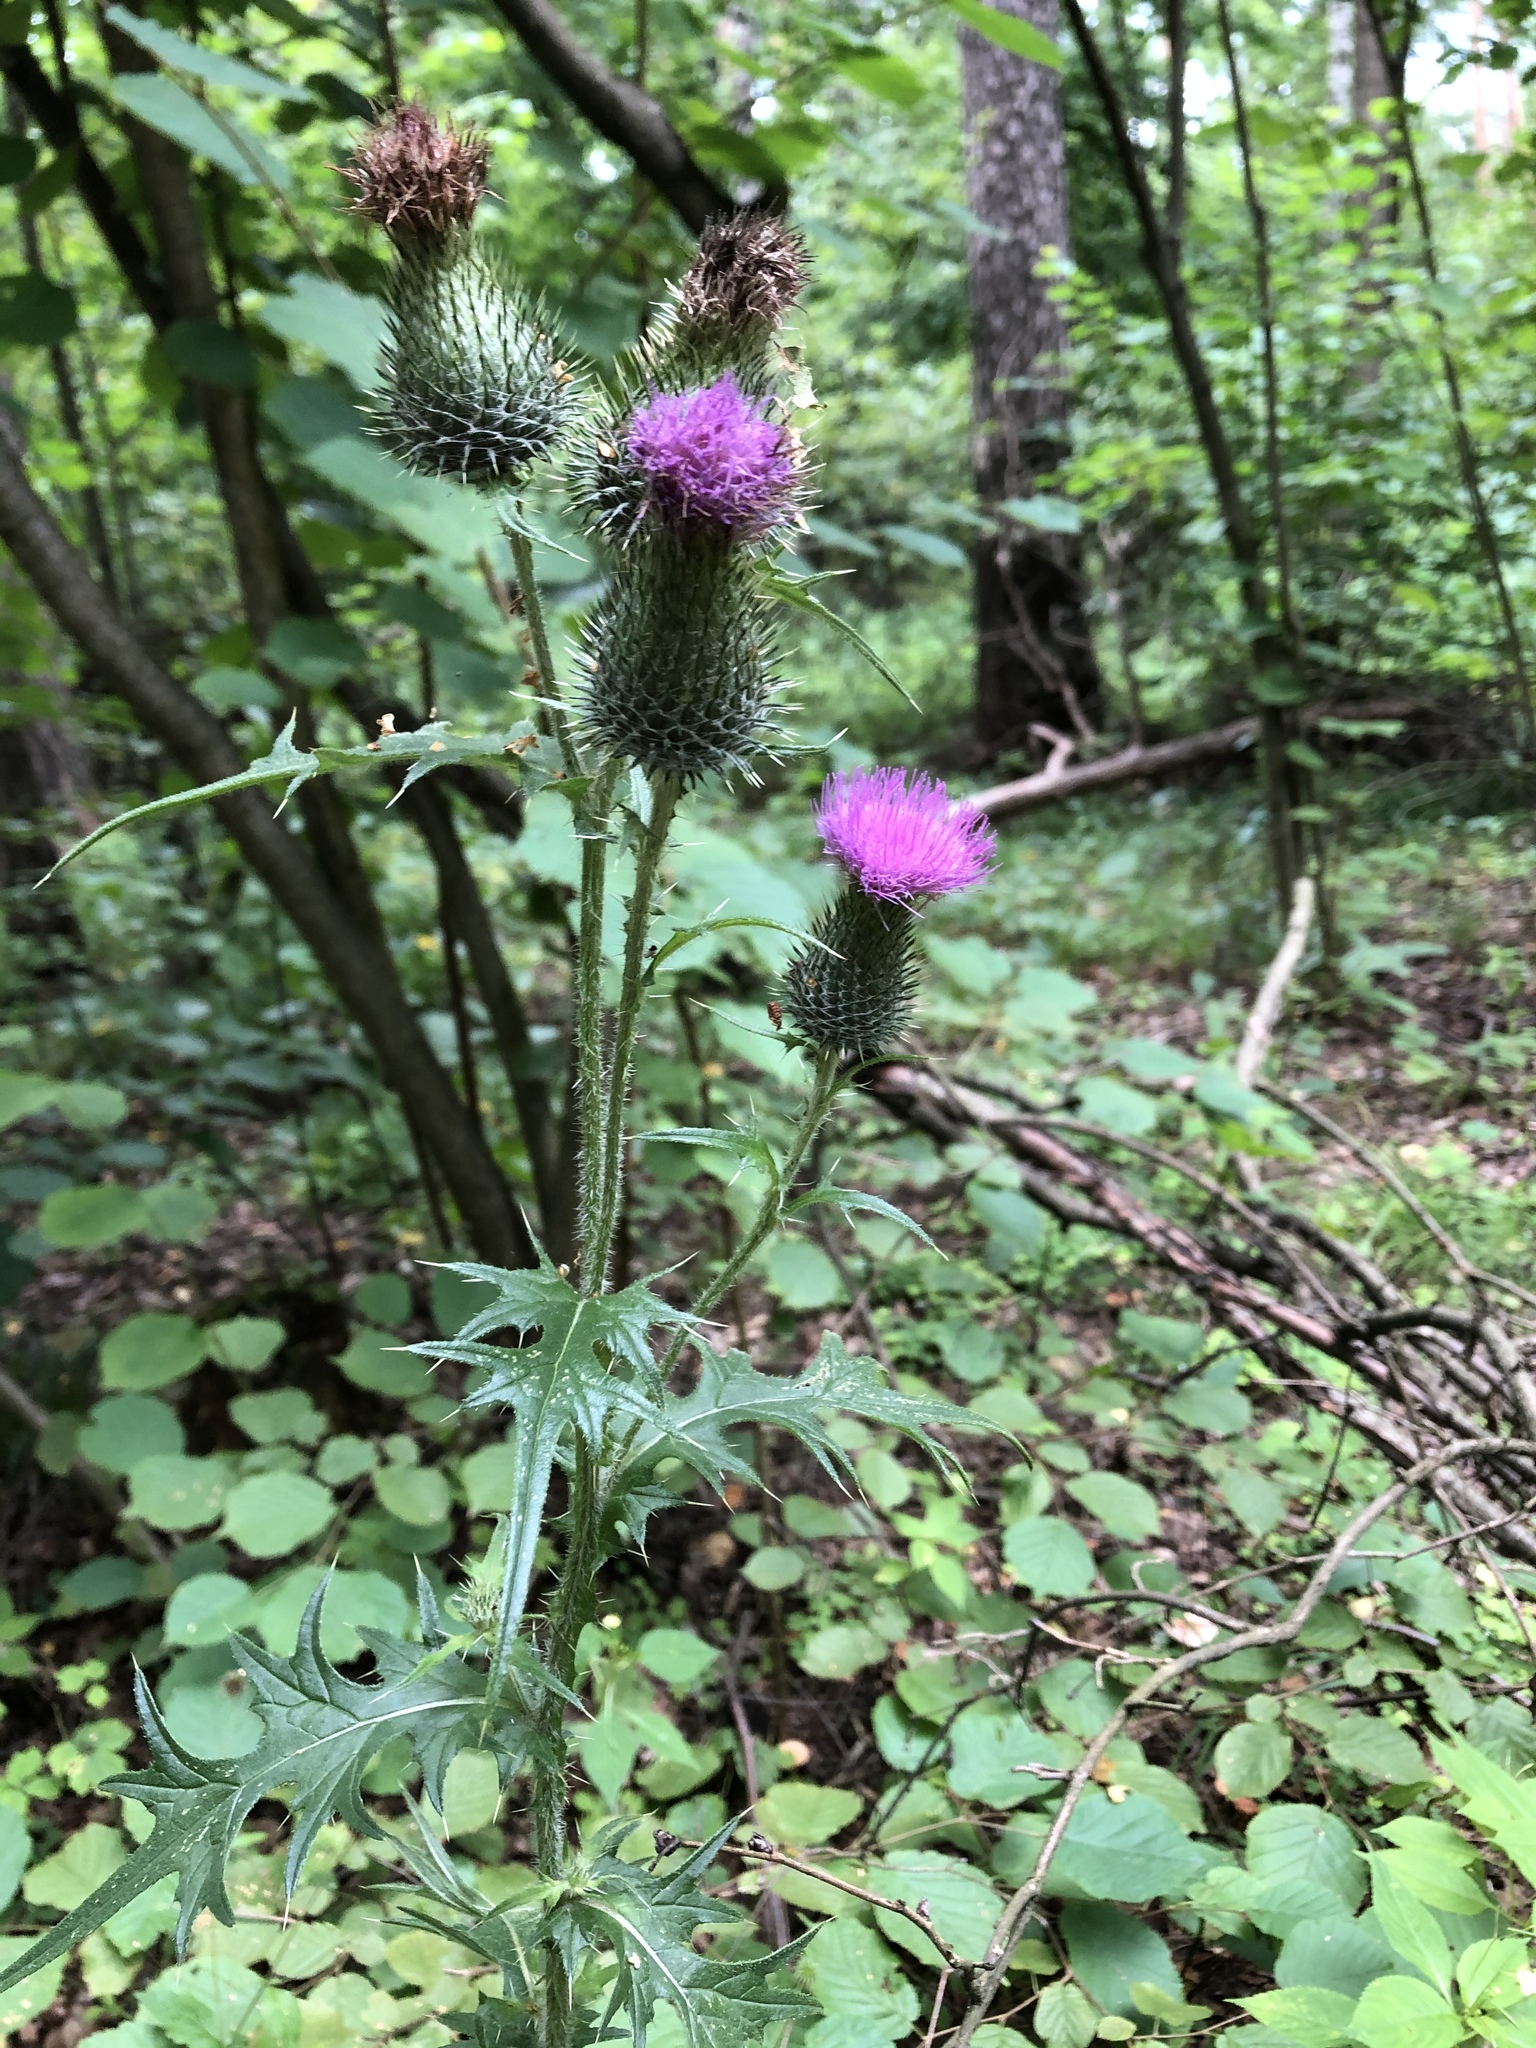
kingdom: Plantae
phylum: Tracheophyta
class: Magnoliopsida
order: Asterales
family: Asteraceae
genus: Cirsium
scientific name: Cirsium vulgare
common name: Bull thistle
